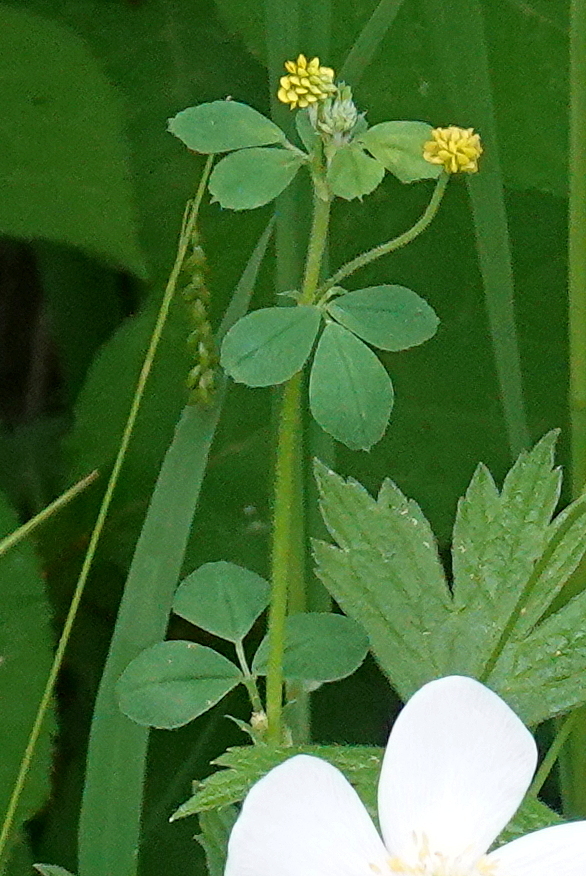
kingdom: Plantae
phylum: Tracheophyta
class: Magnoliopsida
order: Fabales
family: Fabaceae
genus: Medicago
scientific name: Medicago lupulina
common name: Black medick
